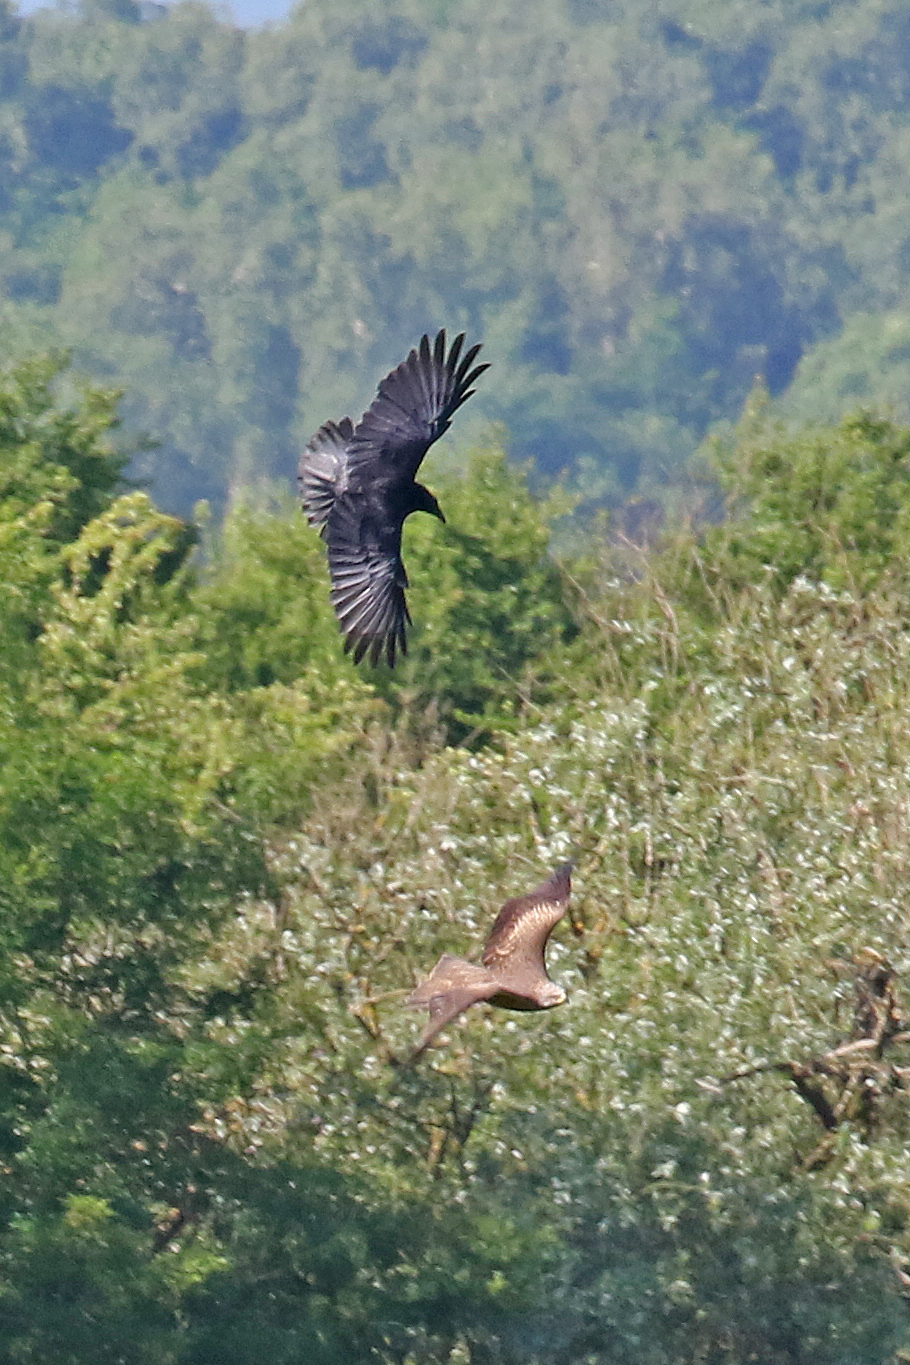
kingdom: Animalia
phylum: Chordata
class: Aves
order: Passeriformes
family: Corvidae
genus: Corvus
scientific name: Corvus corax
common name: Common raven
